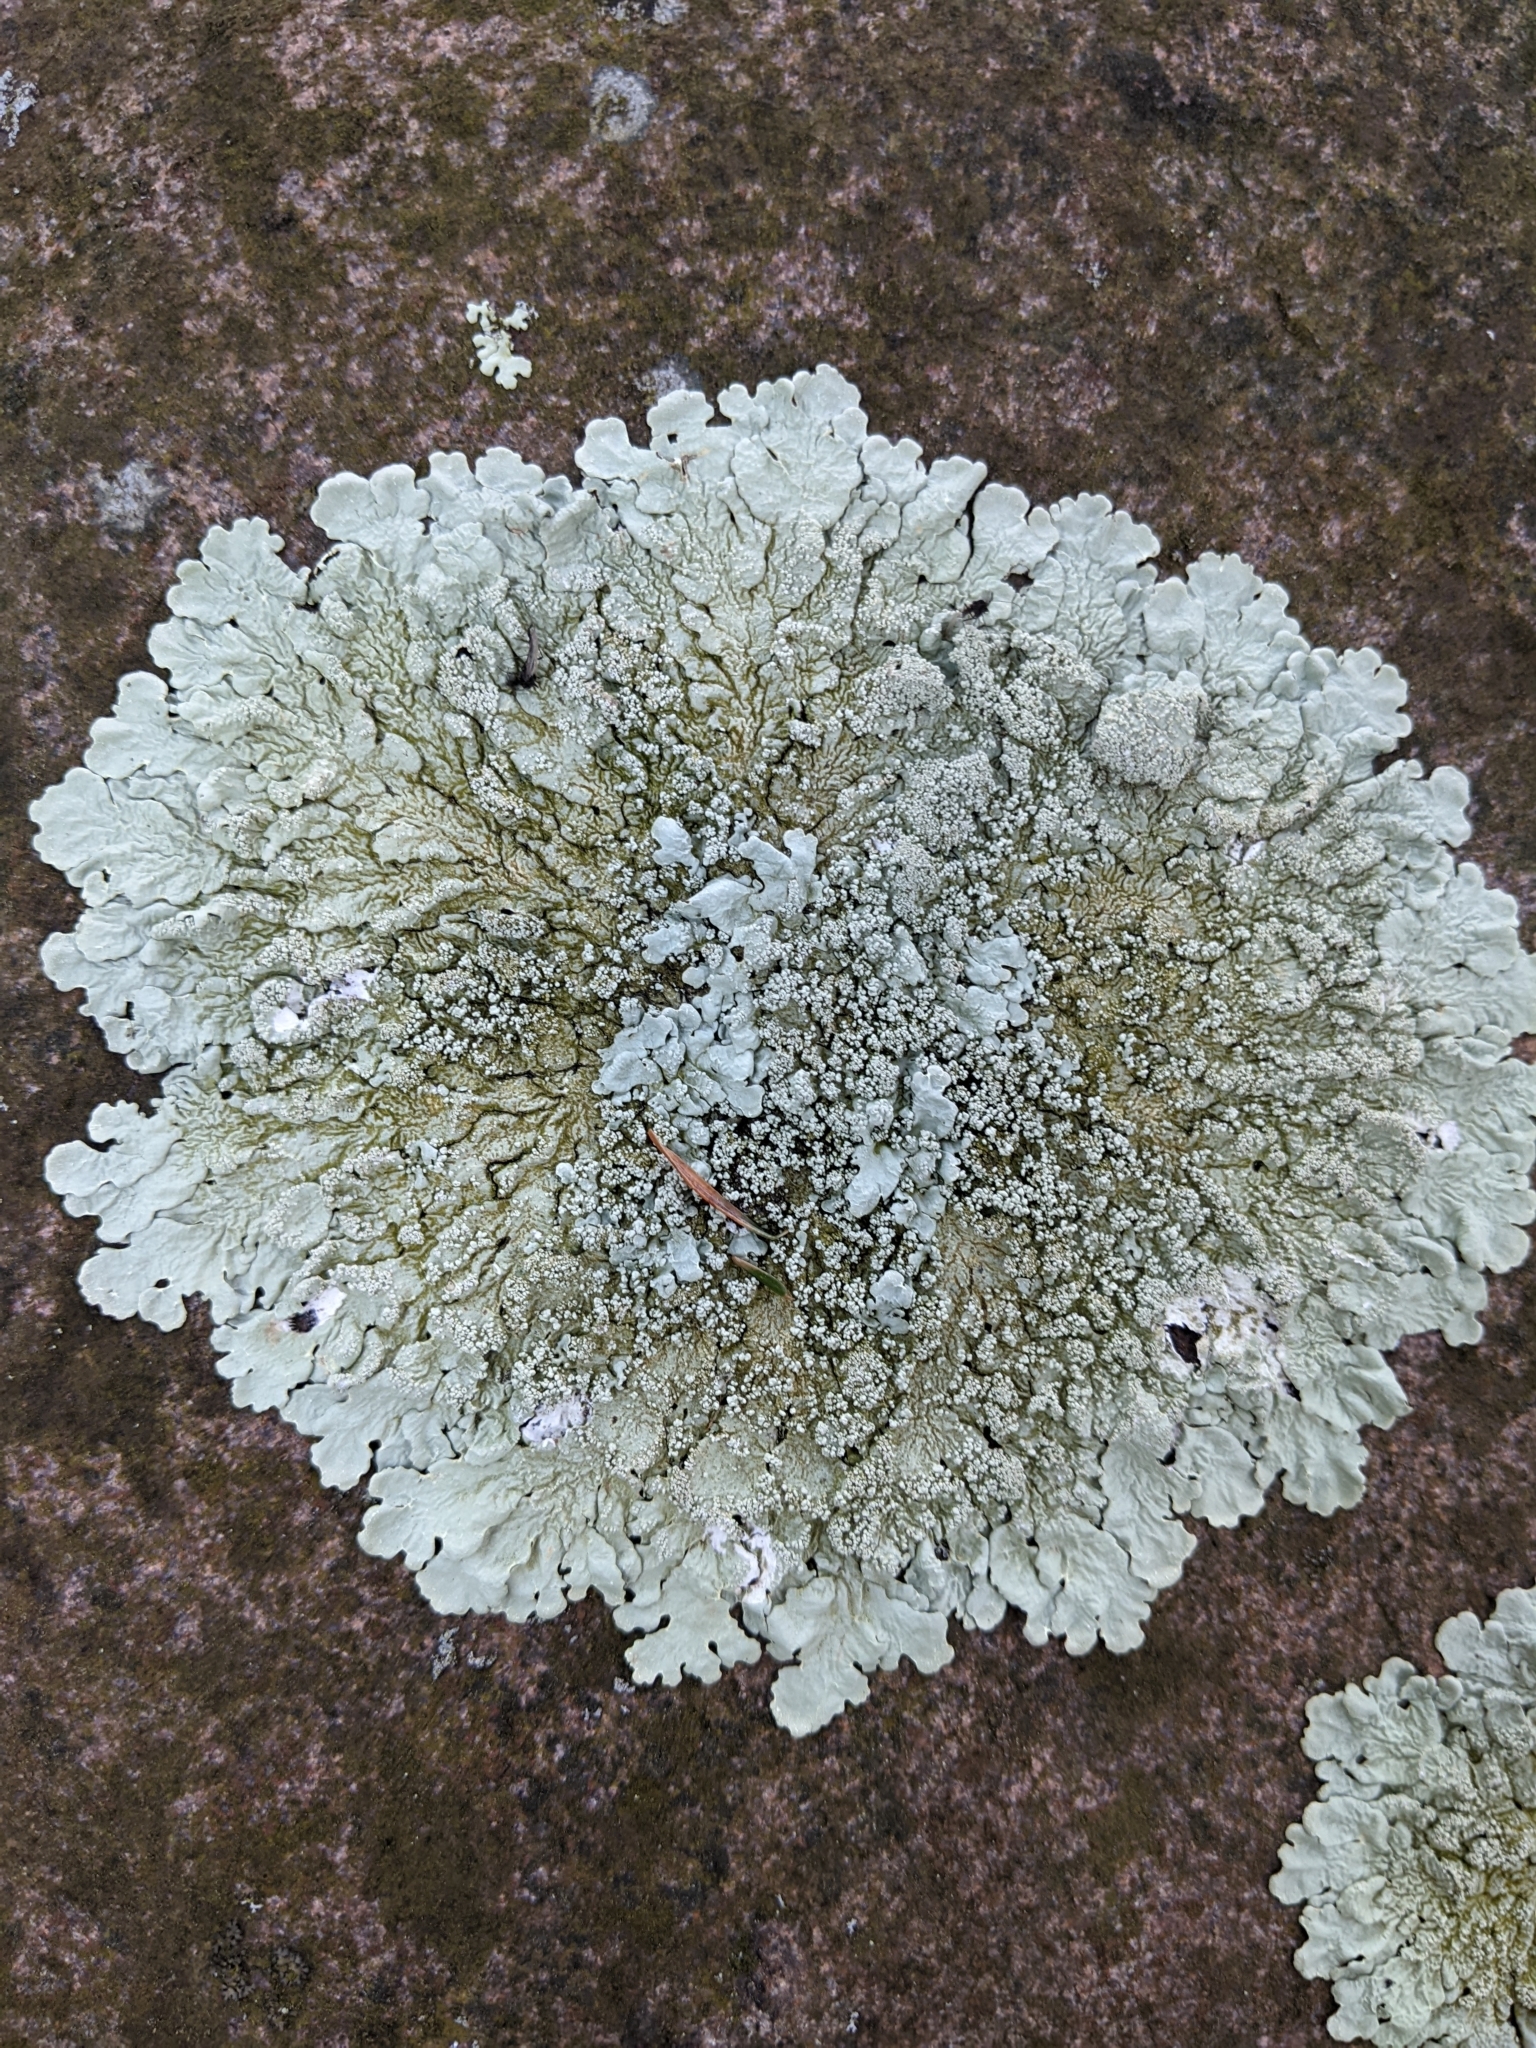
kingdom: Fungi
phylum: Ascomycota
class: Lecanoromycetes
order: Lecanorales
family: Parmeliaceae
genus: Flavoparmelia
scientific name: Flavoparmelia baltimorensis
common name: Rock greenshield
